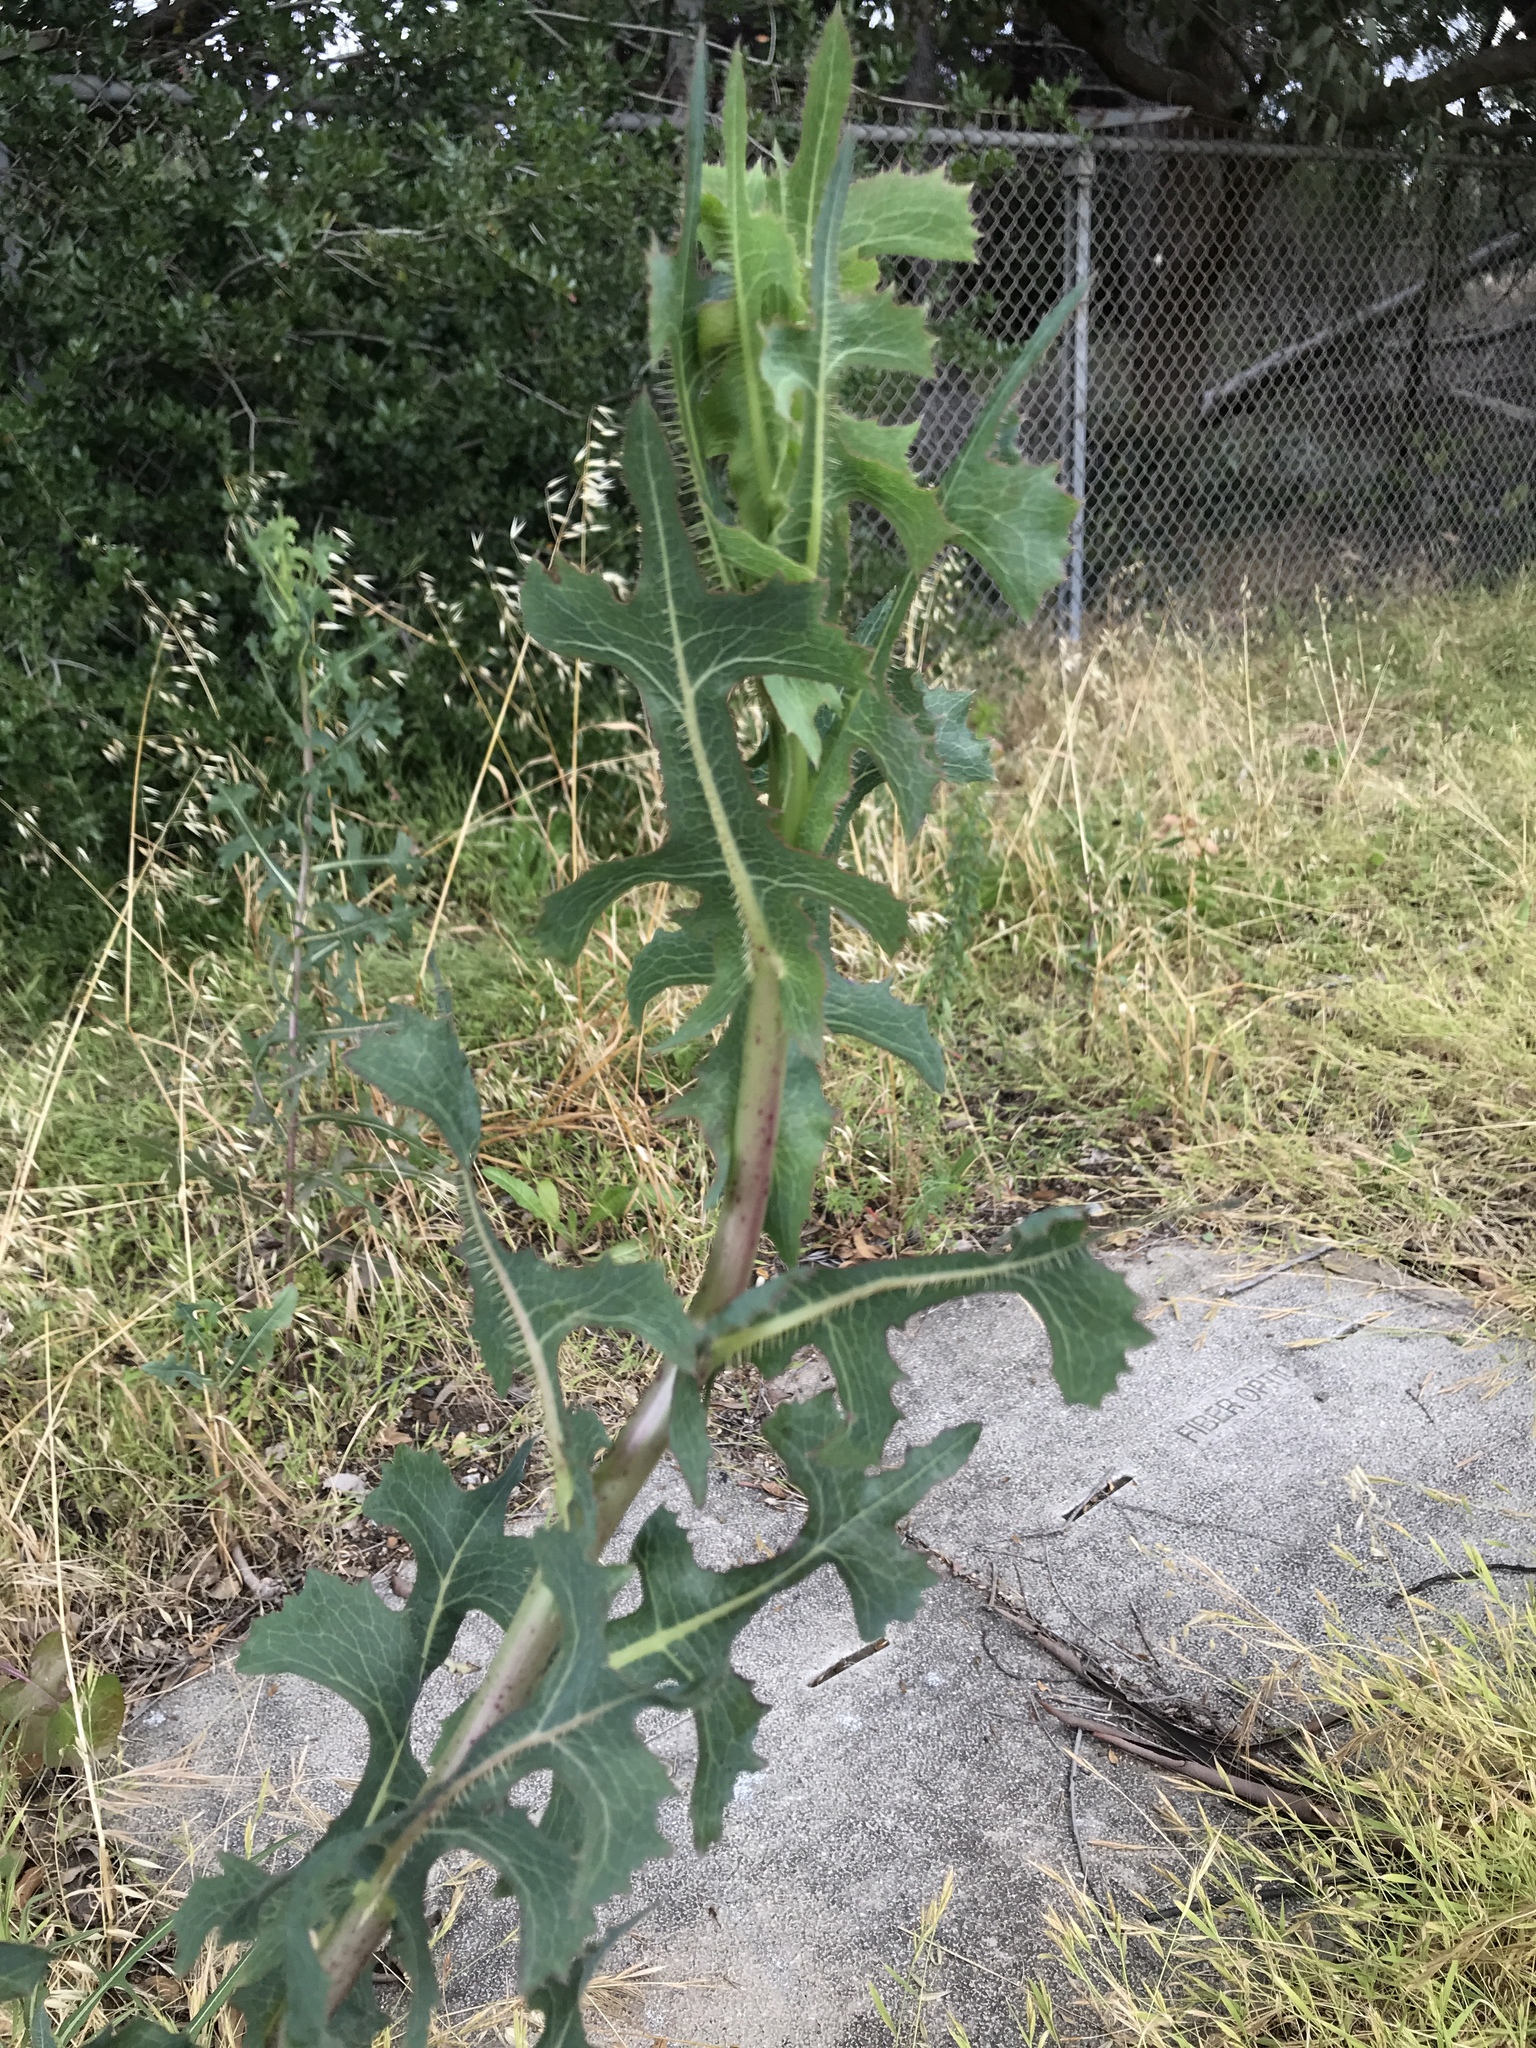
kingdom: Plantae
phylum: Tracheophyta
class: Magnoliopsida
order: Asterales
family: Asteraceae
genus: Lactuca
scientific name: Lactuca serriola
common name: Prickly lettuce
